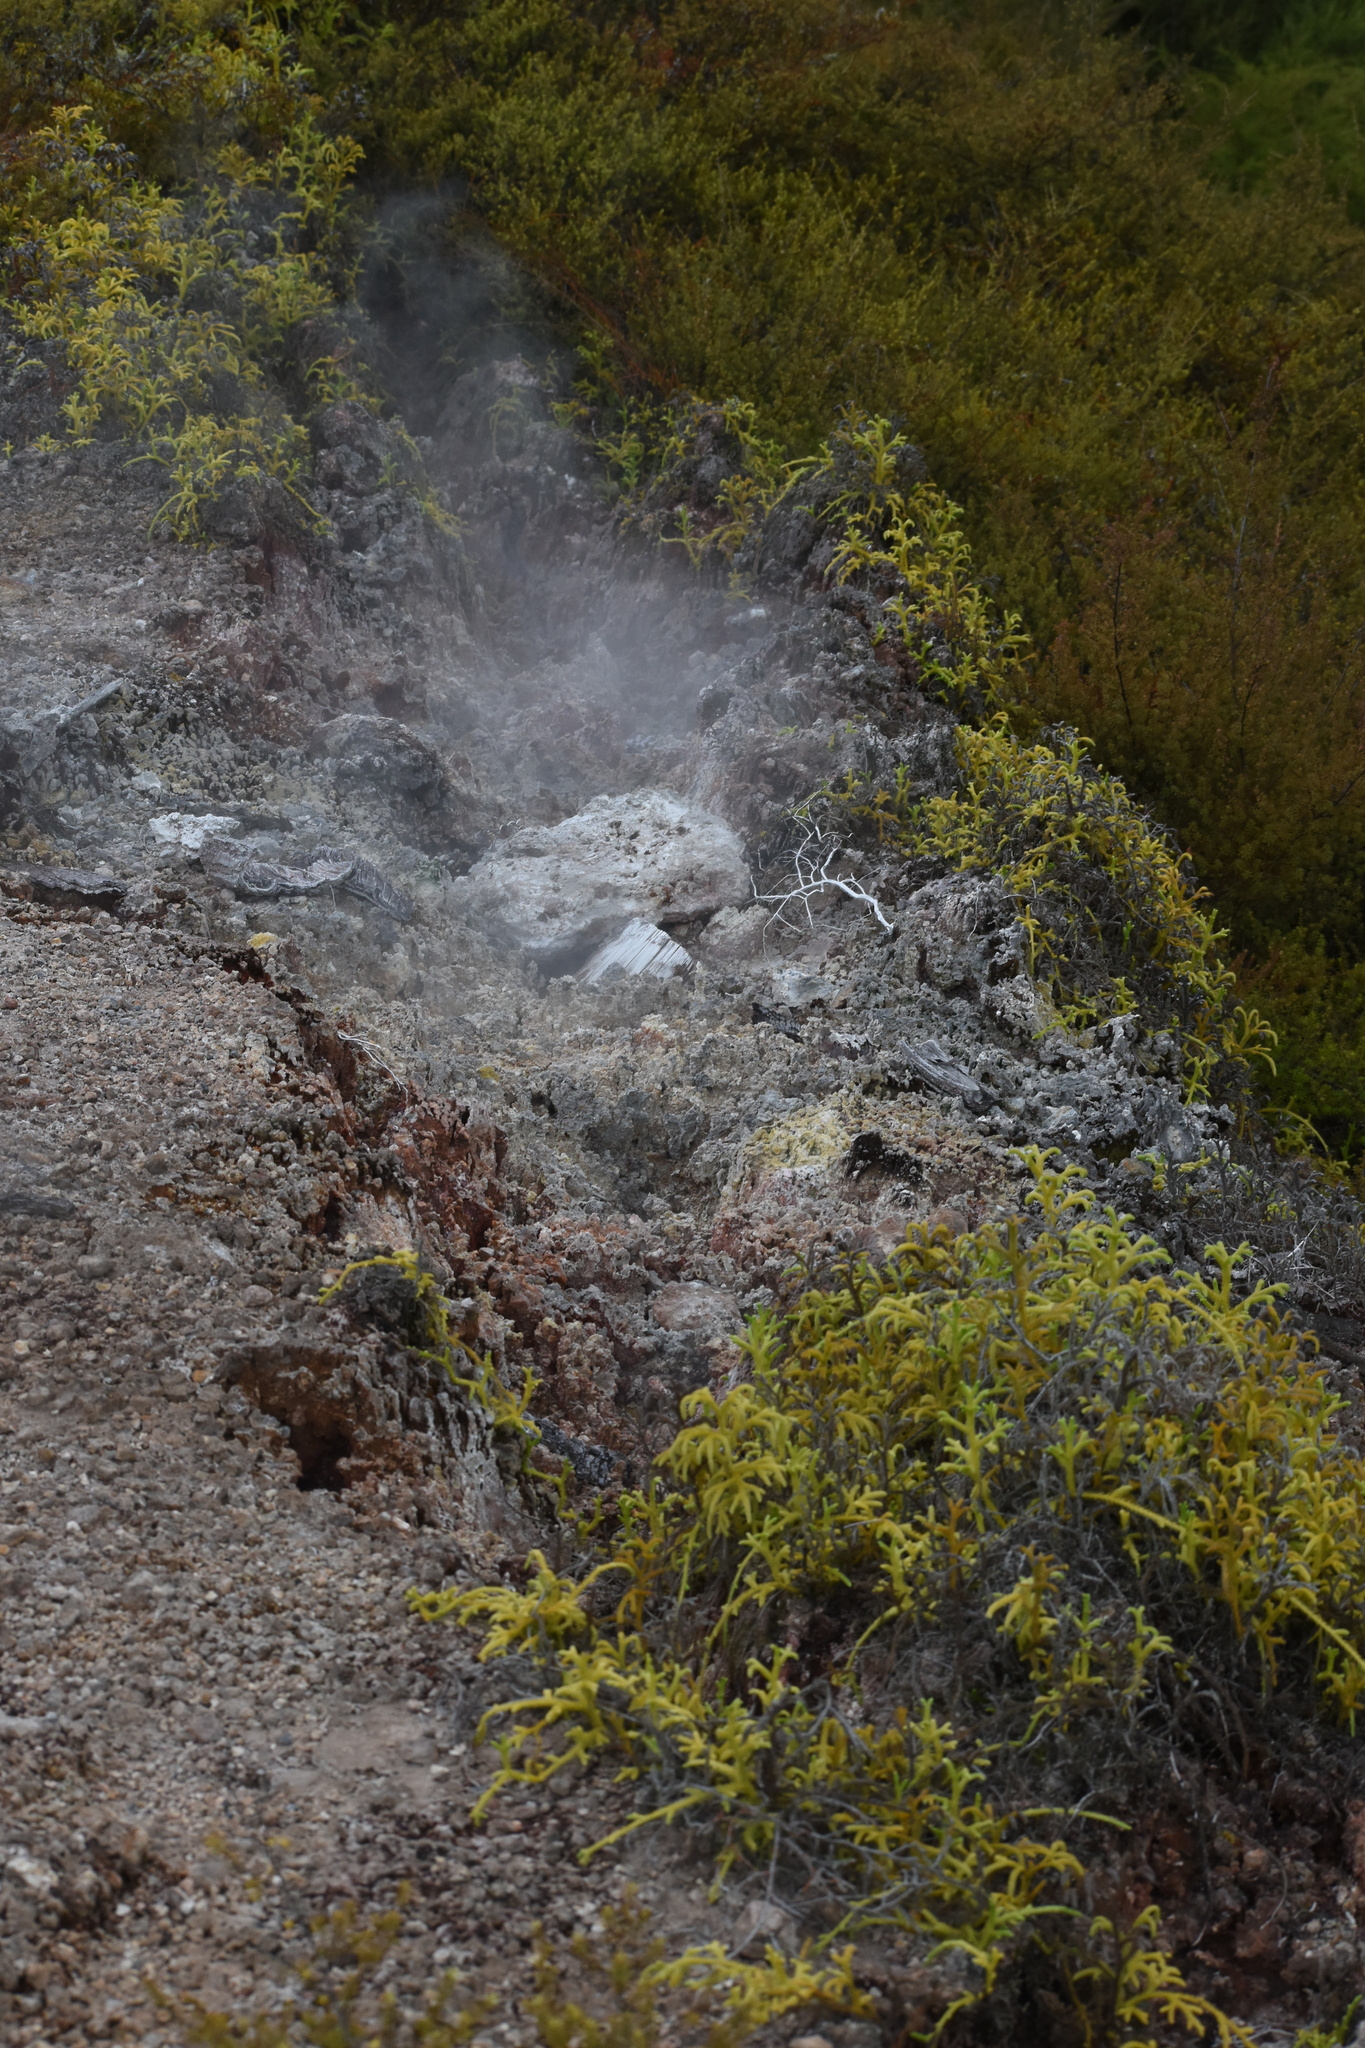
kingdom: Plantae
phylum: Tracheophyta
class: Lycopodiopsida
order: Lycopodiales
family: Lycopodiaceae
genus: Palhinhaea
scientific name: Palhinhaea cernua
